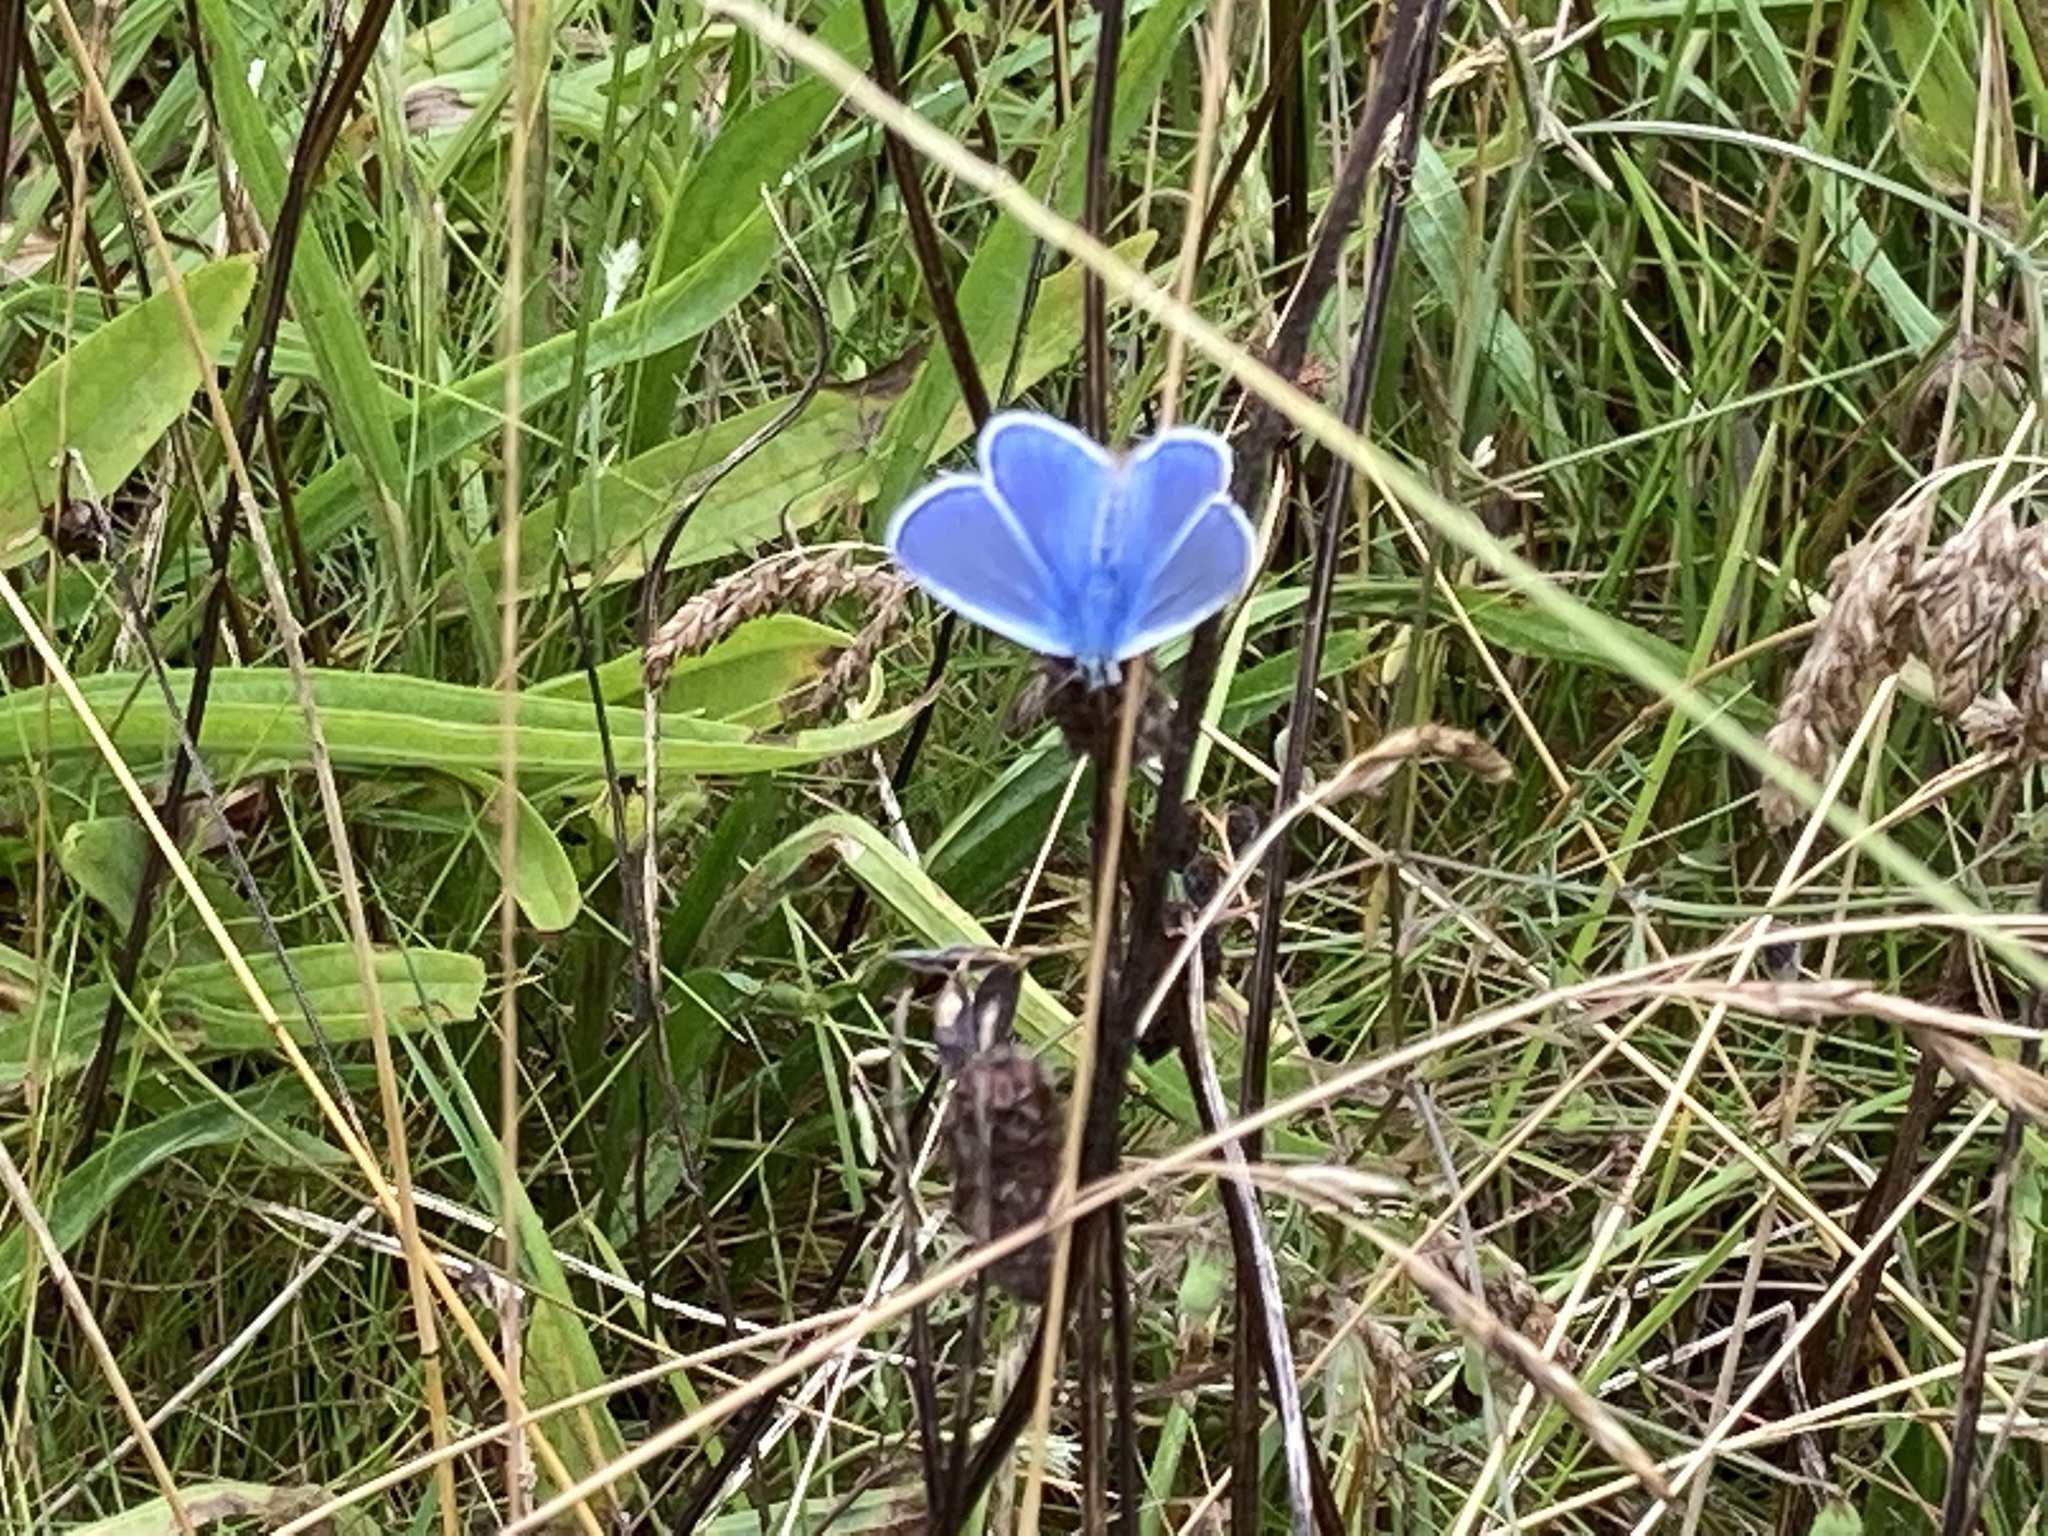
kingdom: Animalia
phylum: Arthropoda
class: Insecta
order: Lepidoptera
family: Lycaenidae
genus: Polyommatus
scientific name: Polyommatus icarus
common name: Common blue
